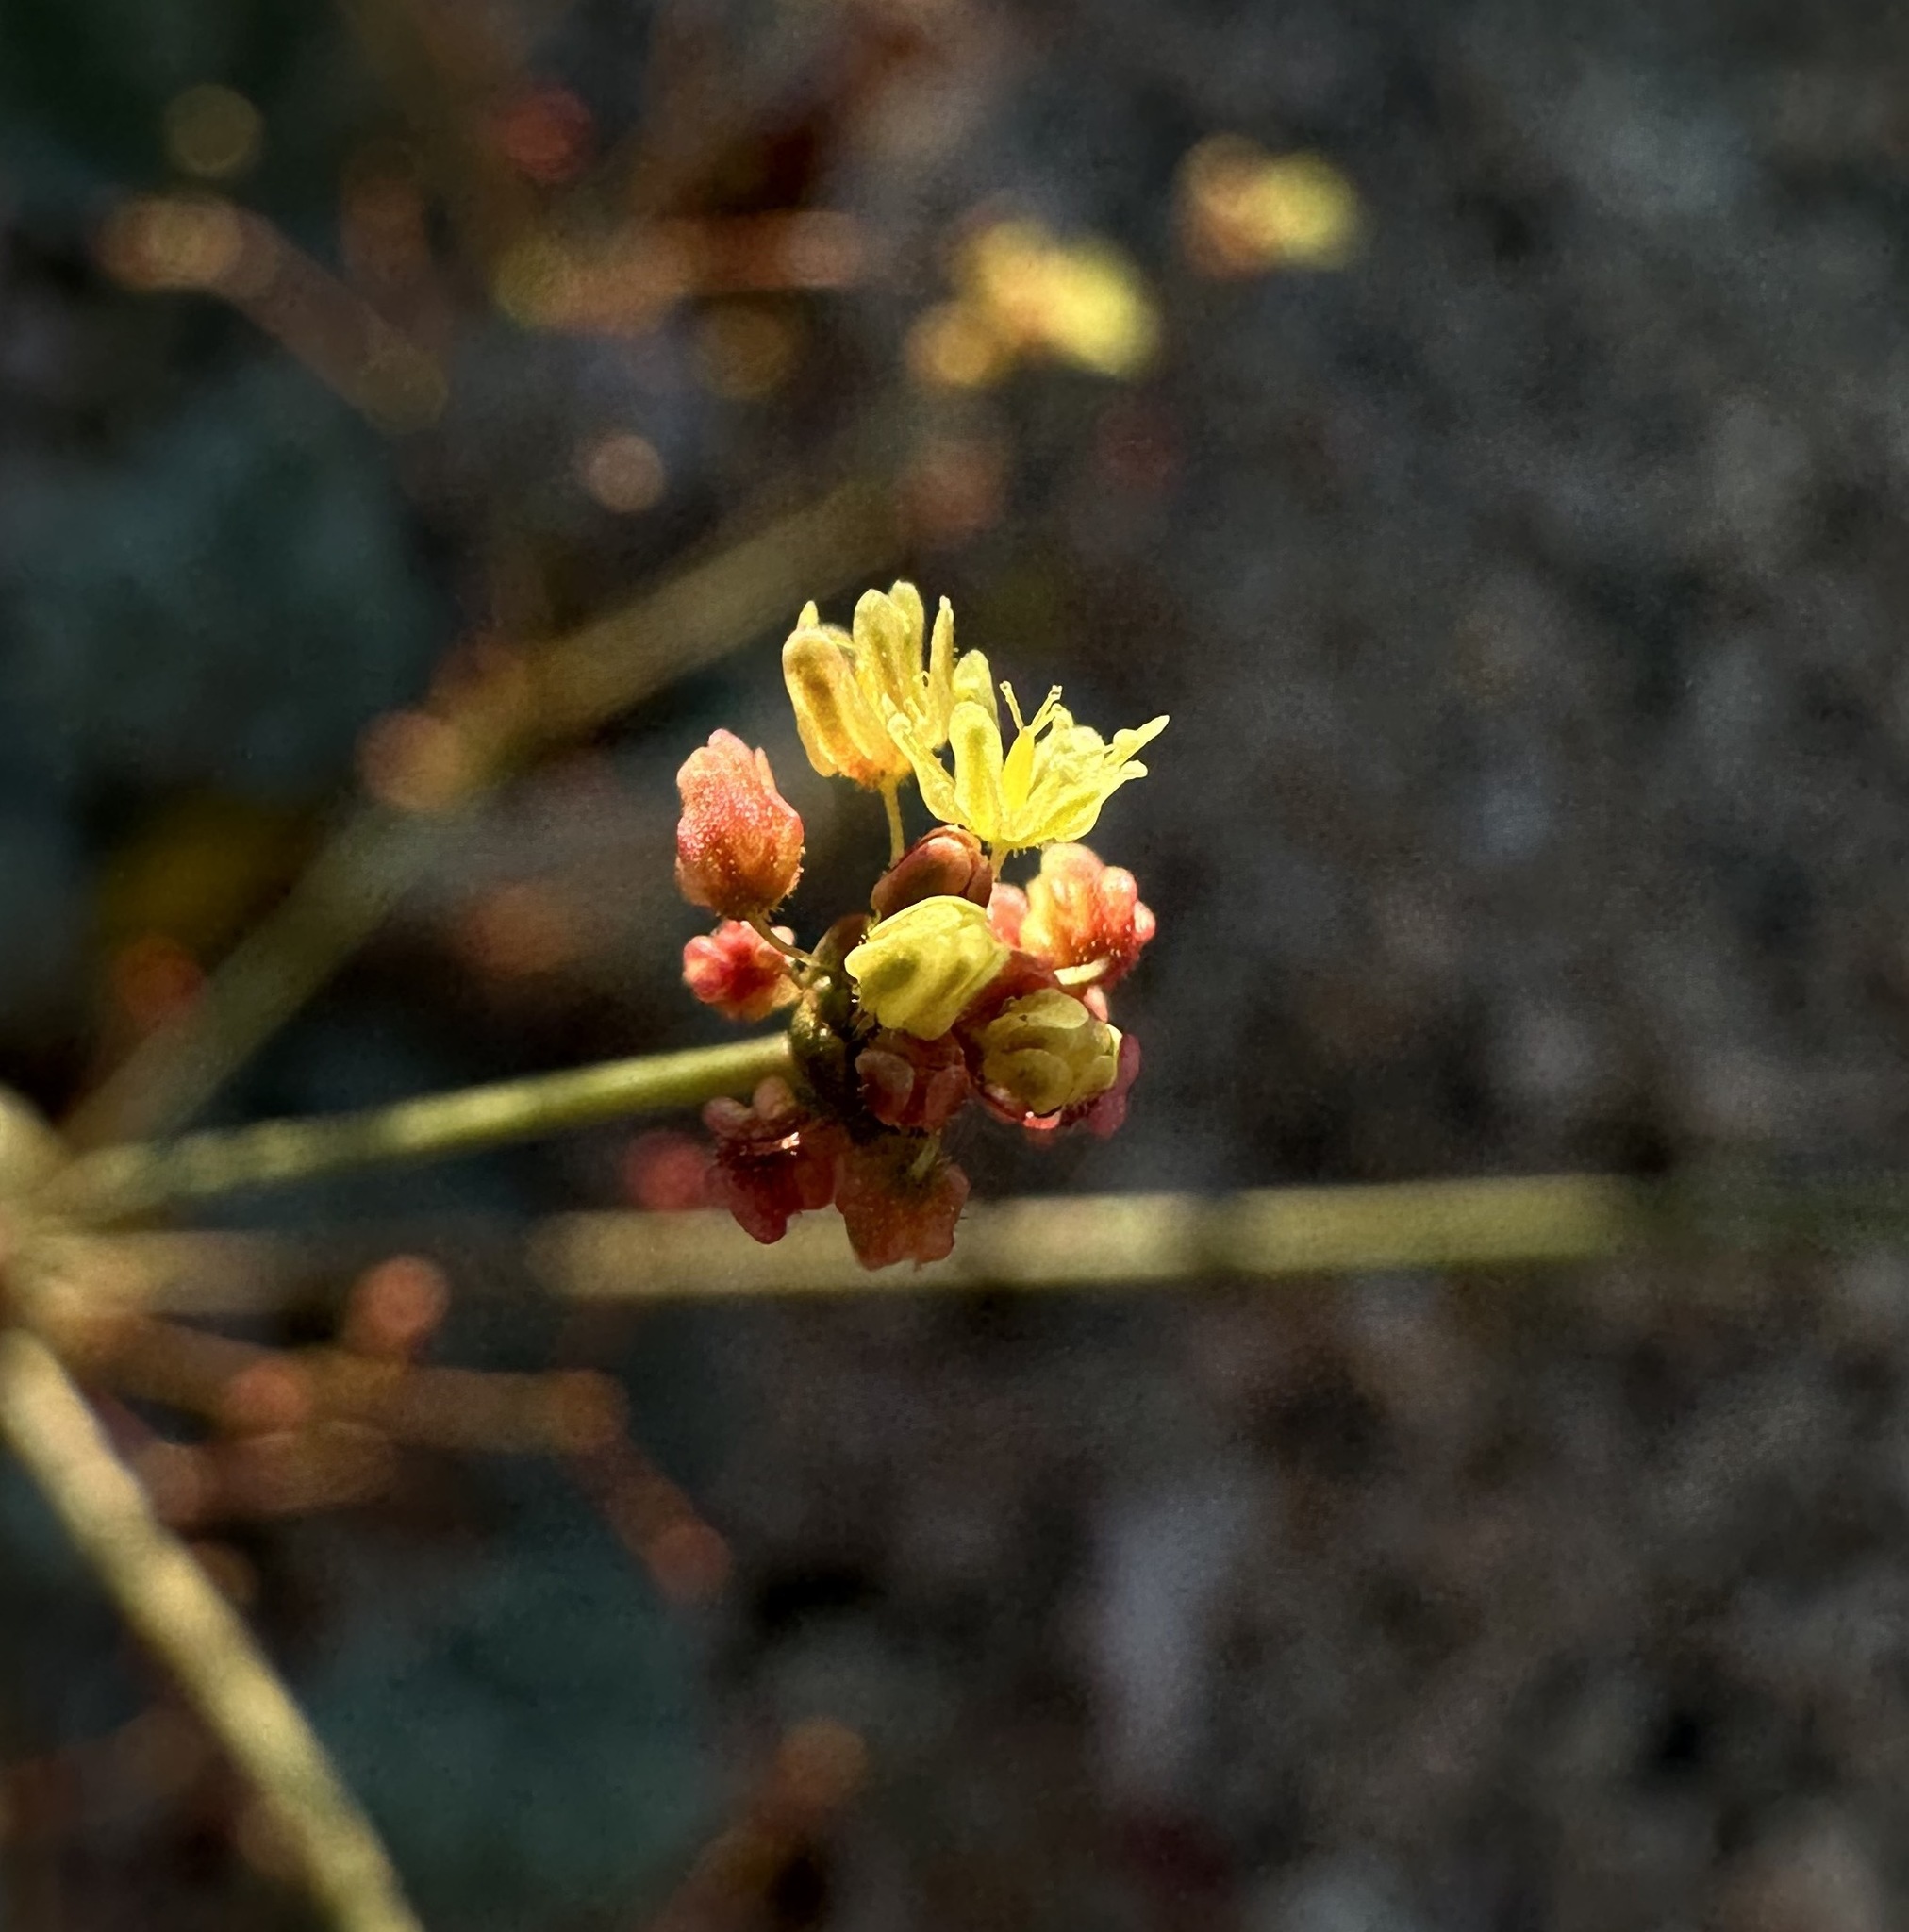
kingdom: Plantae
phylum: Tracheophyta
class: Magnoliopsida
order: Caryophyllales
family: Polygonaceae
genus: Eriogonum
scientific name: Eriogonum thomasii
